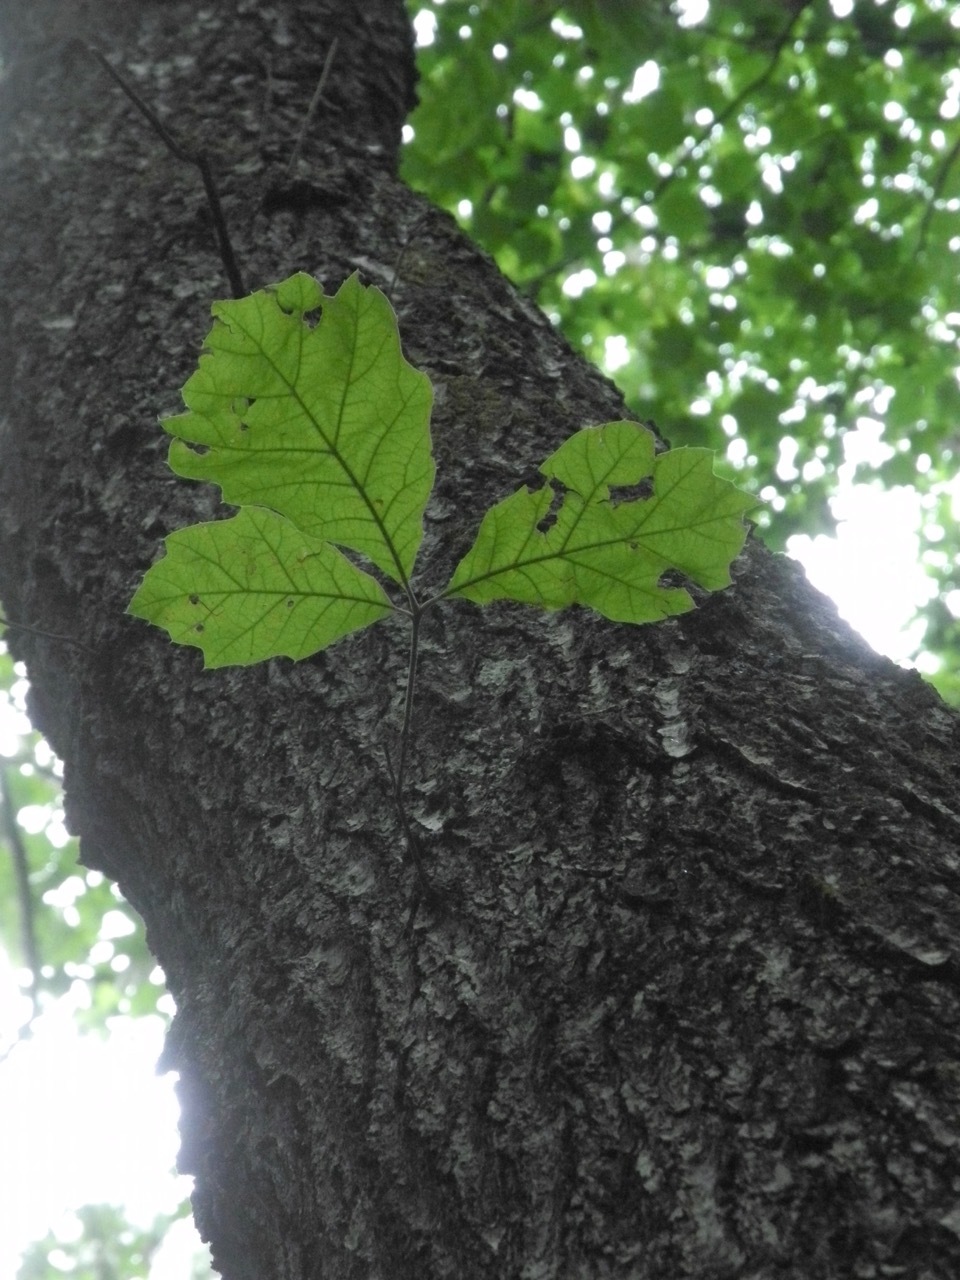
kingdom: Plantae
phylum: Tracheophyta
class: Magnoliopsida
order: Fagales
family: Fagaceae
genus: Quercus
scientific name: Quercus velutina
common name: Black oak
